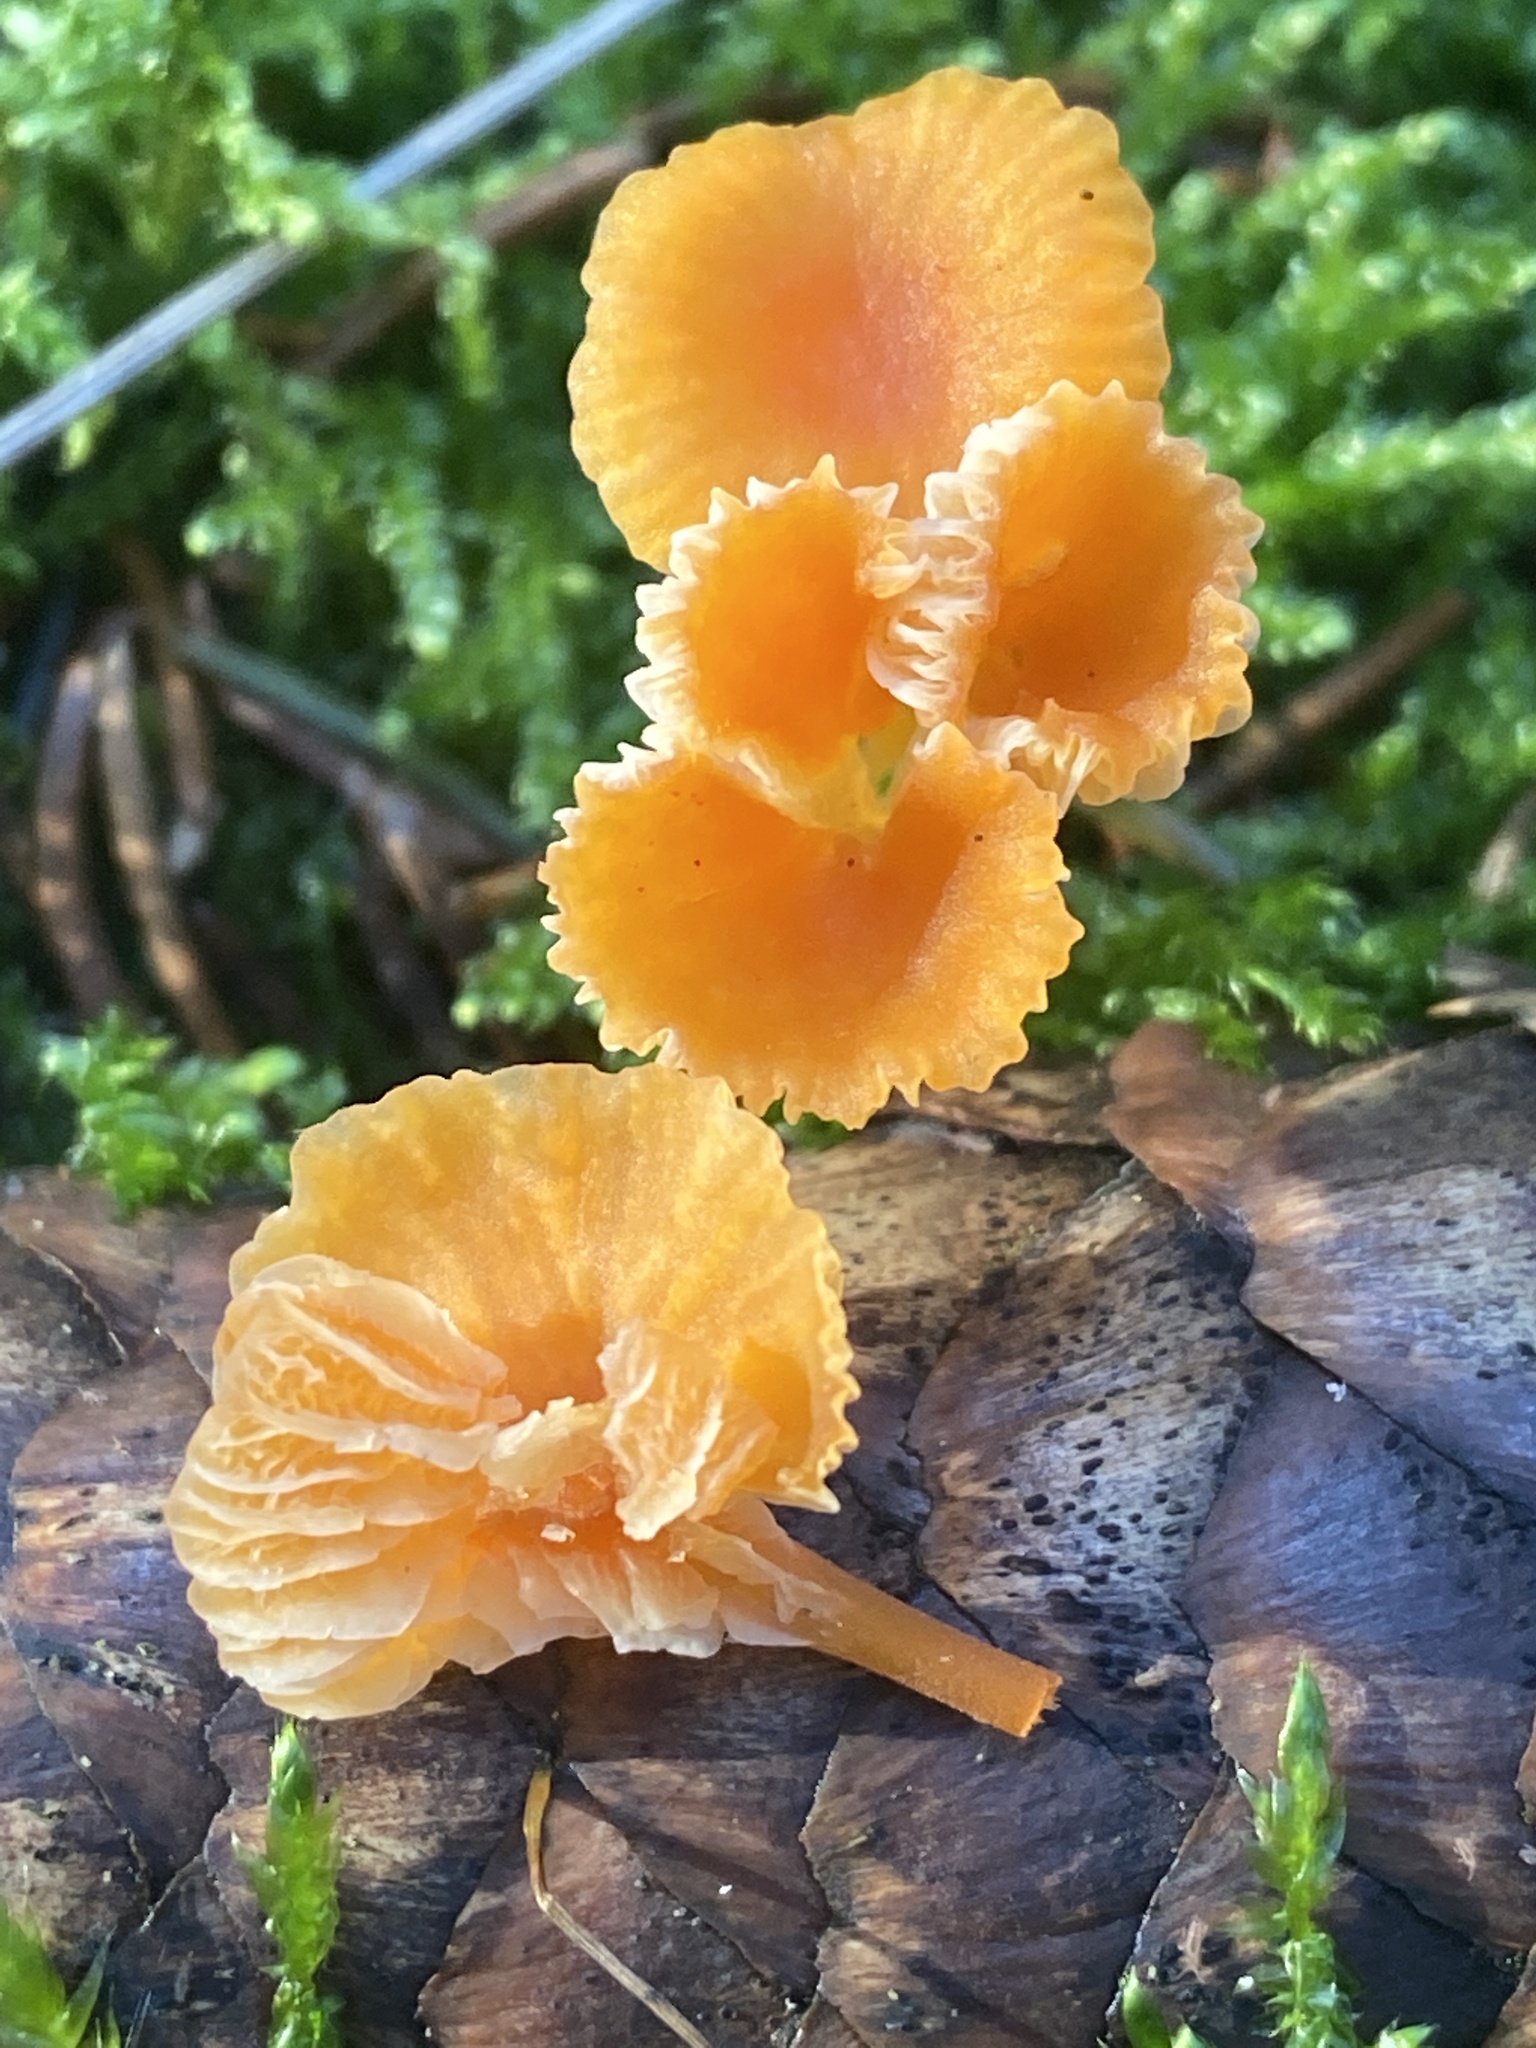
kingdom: Fungi
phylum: Basidiomycota
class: Agaricomycetes
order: Hymenochaetales
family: Rickenellaceae
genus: Rickenella
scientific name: Rickenella fibula
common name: Orange mosscap
